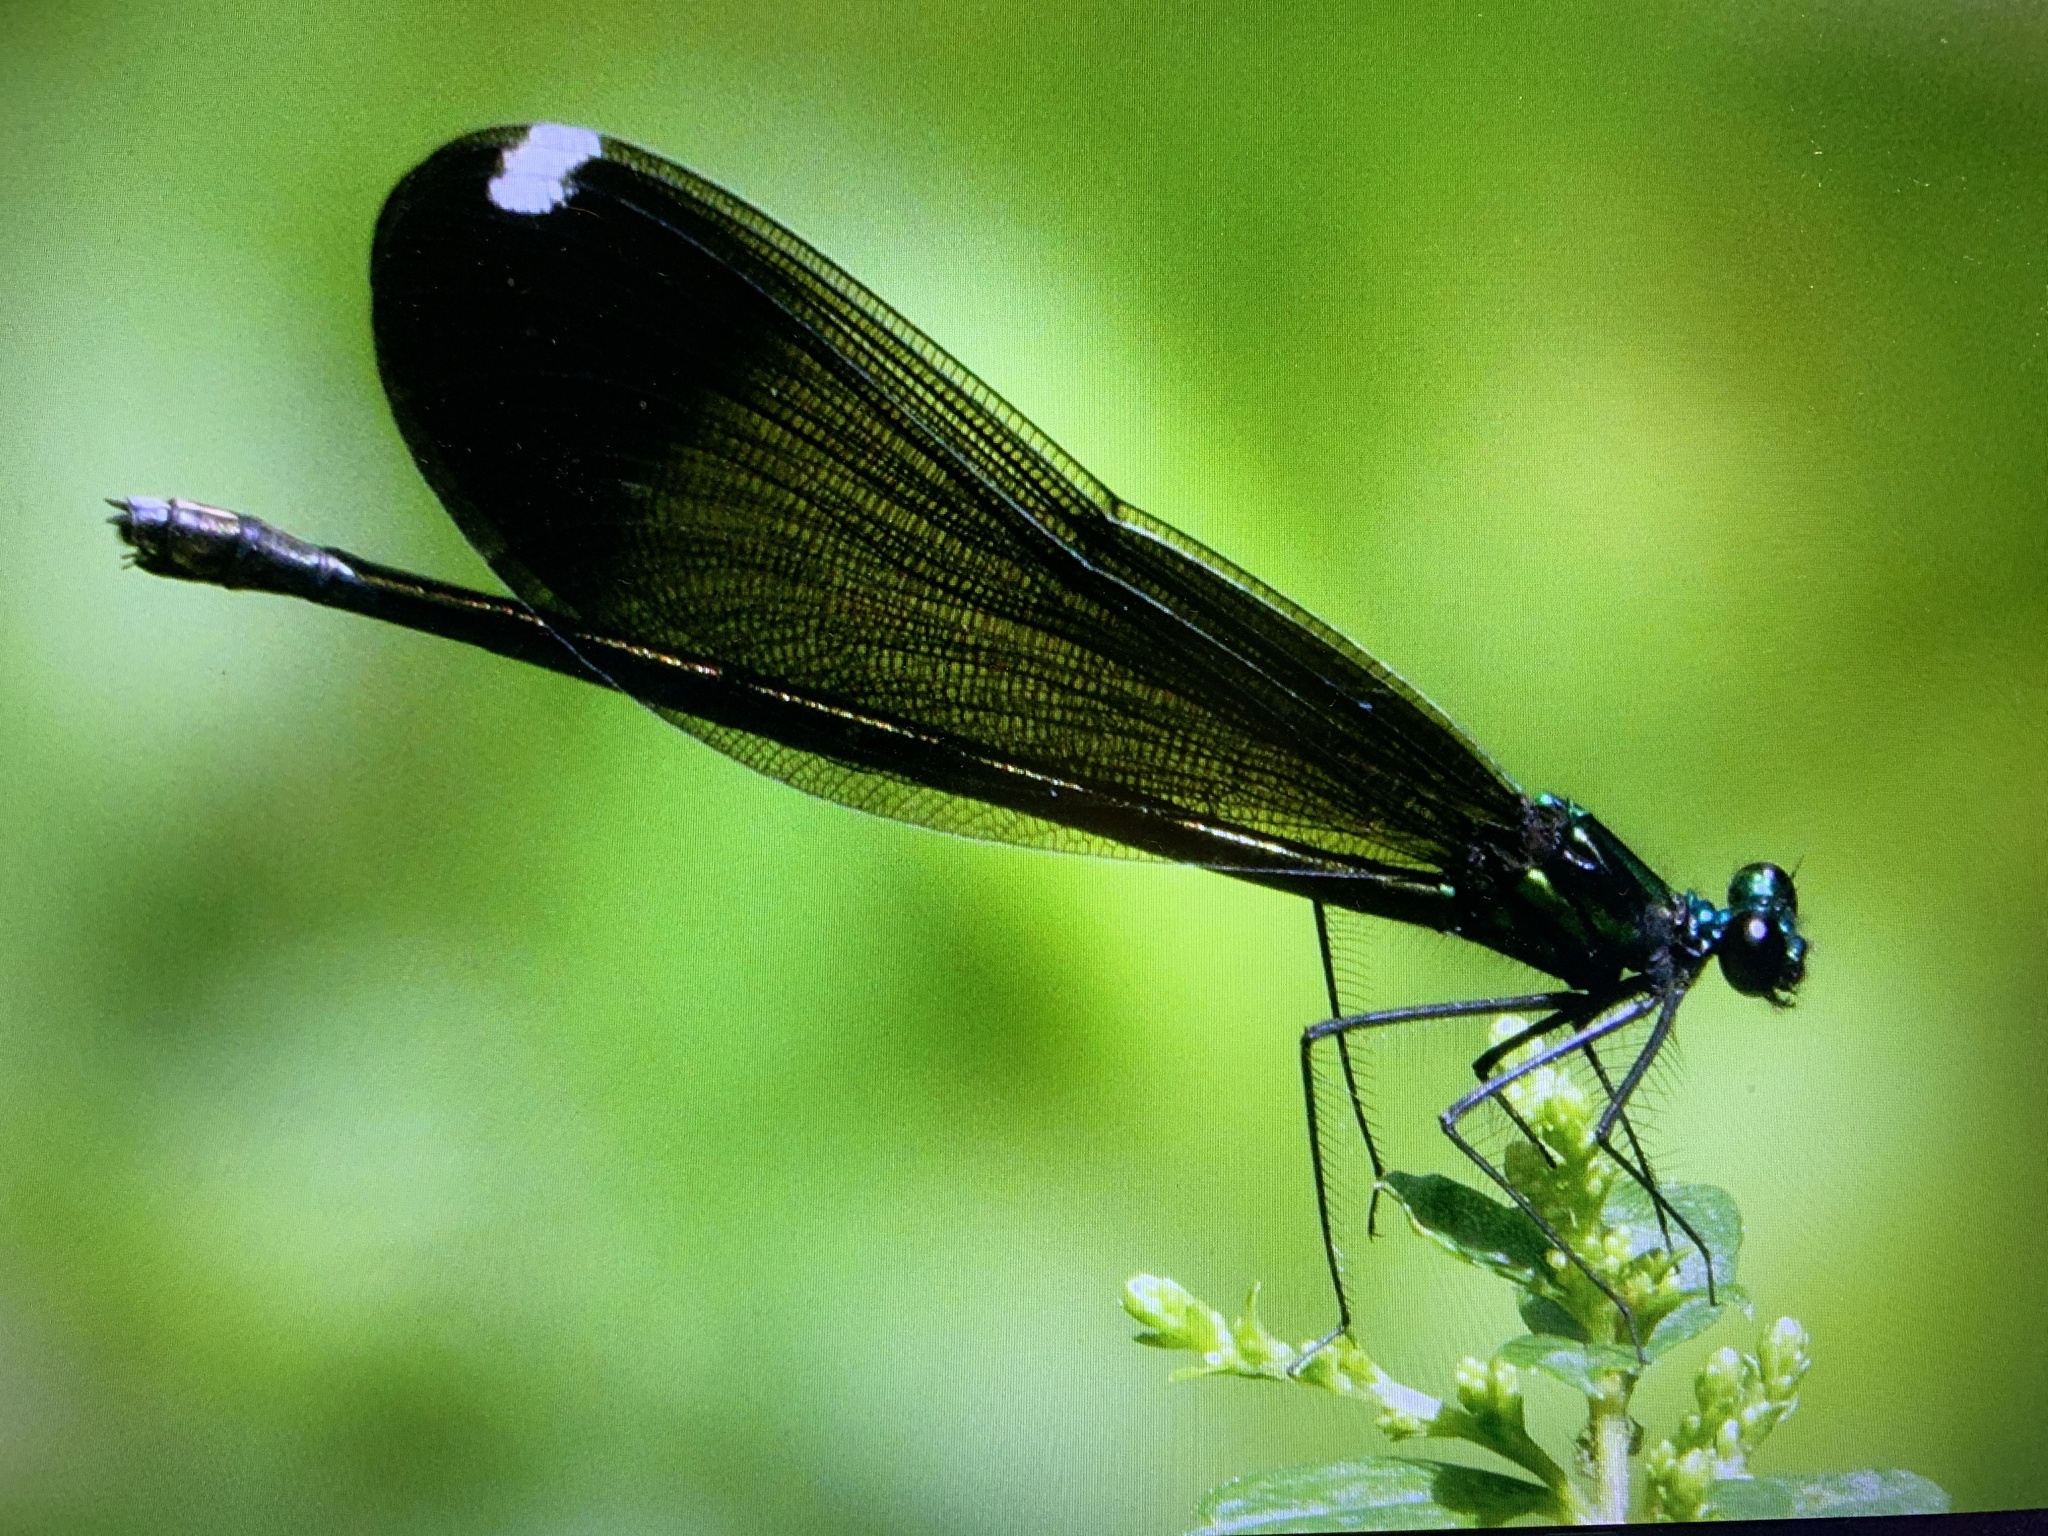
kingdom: Animalia
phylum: Arthropoda
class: Insecta
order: Odonata
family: Calopterygidae
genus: Calopteryx
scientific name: Calopteryx maculata
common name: Ebony jewelwing
